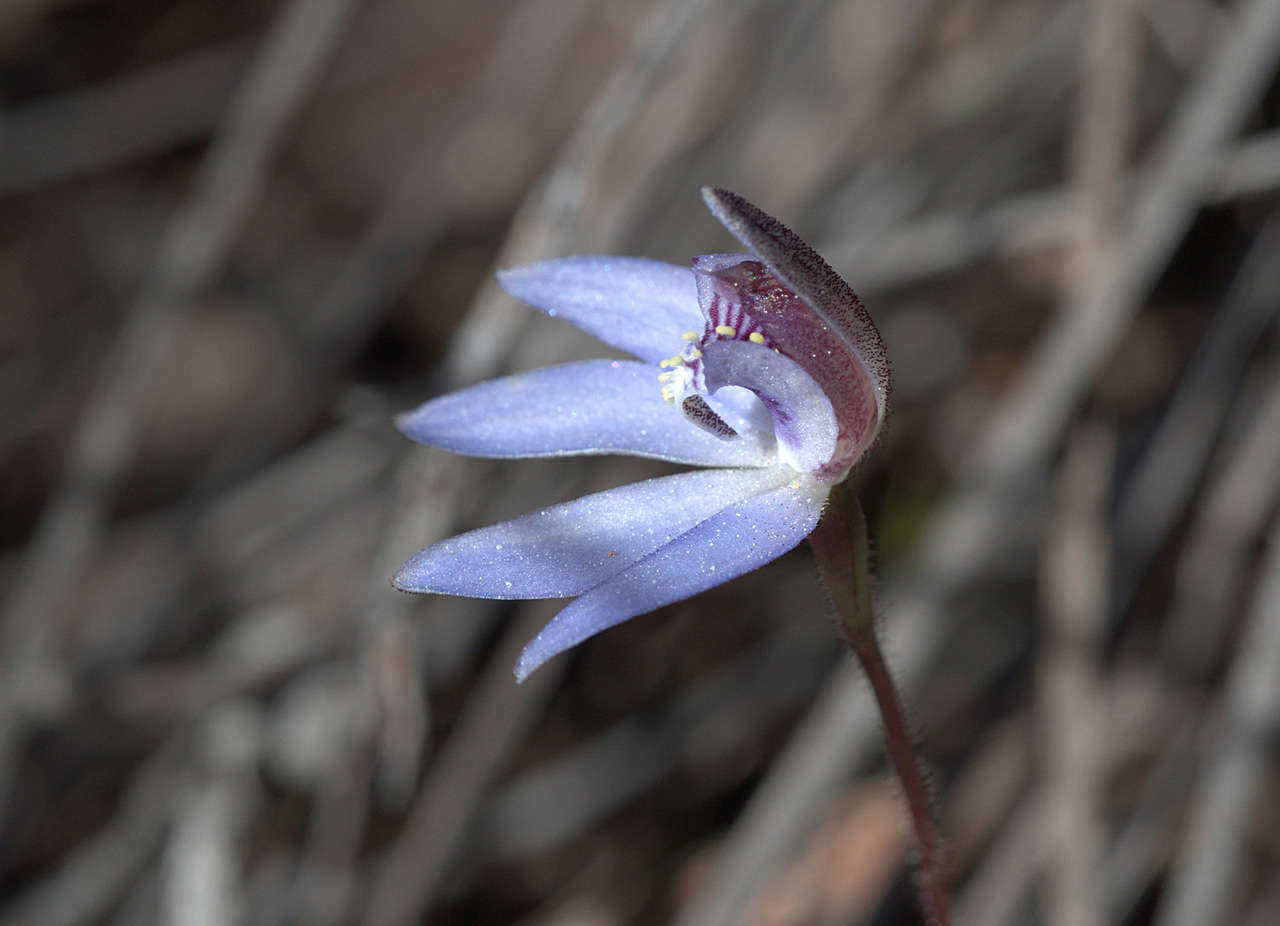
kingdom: Plantae
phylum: Tracheophyta
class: Liliopsida
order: Asparagales
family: Orchidaceae
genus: Caladenia
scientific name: Caladenia caerulea
